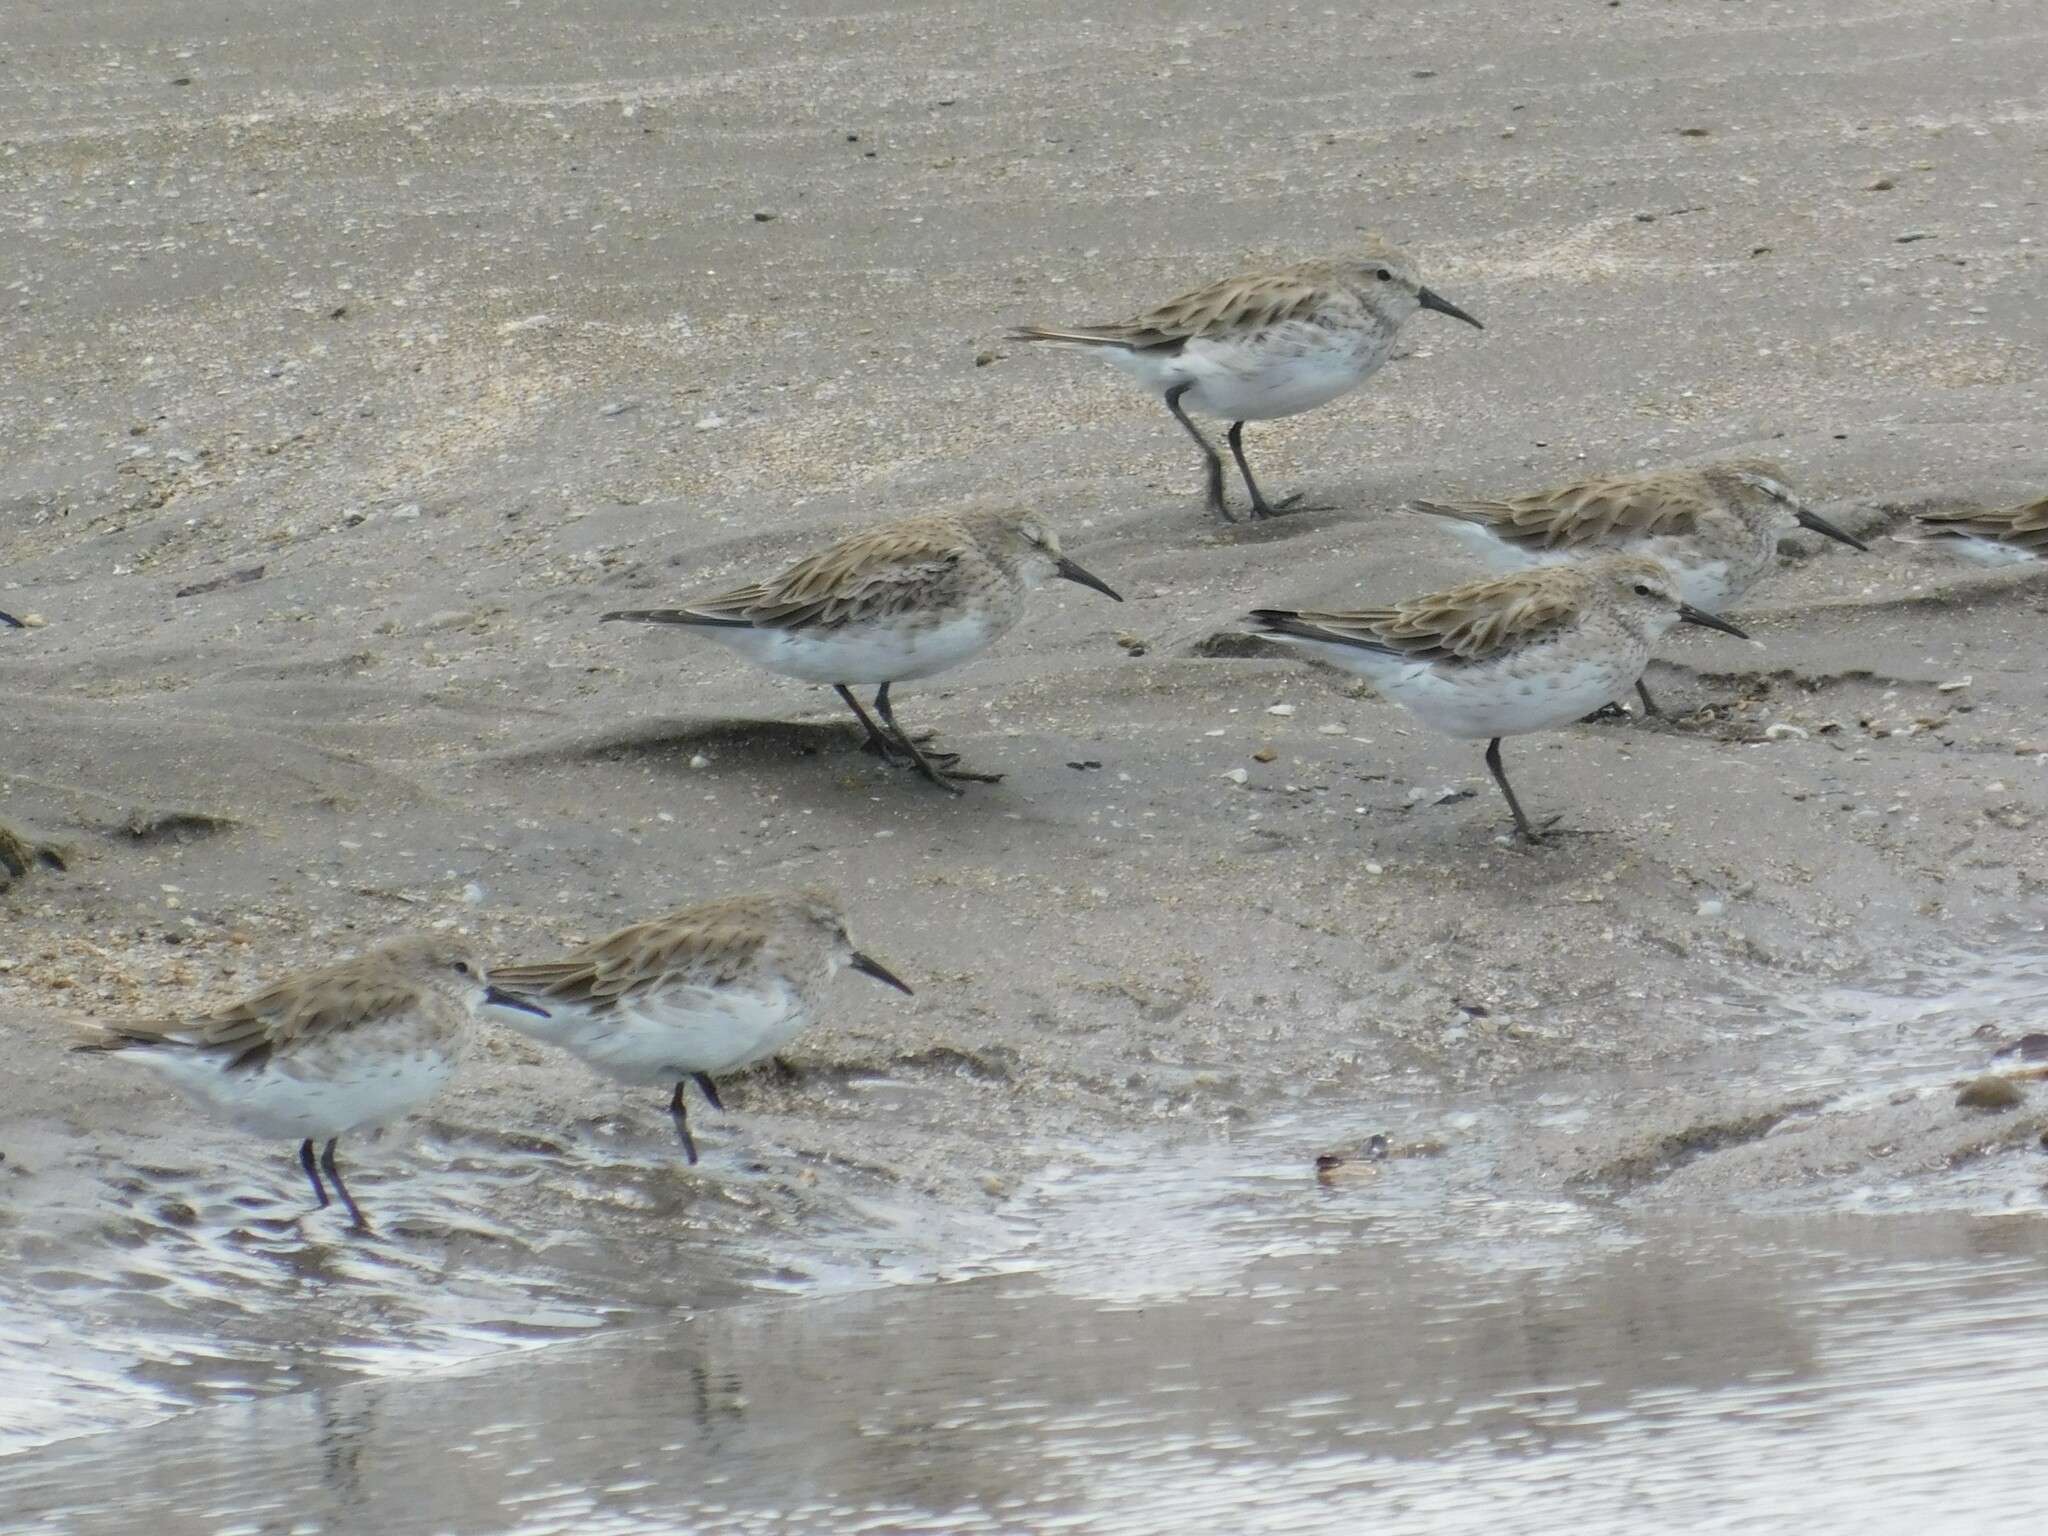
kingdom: Animalia
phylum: Chordata
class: Aves
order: Charadriiformes
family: Scolopacidae
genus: Calidris
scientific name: Calidris fuscicollis
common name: White-rumped sandpiper
